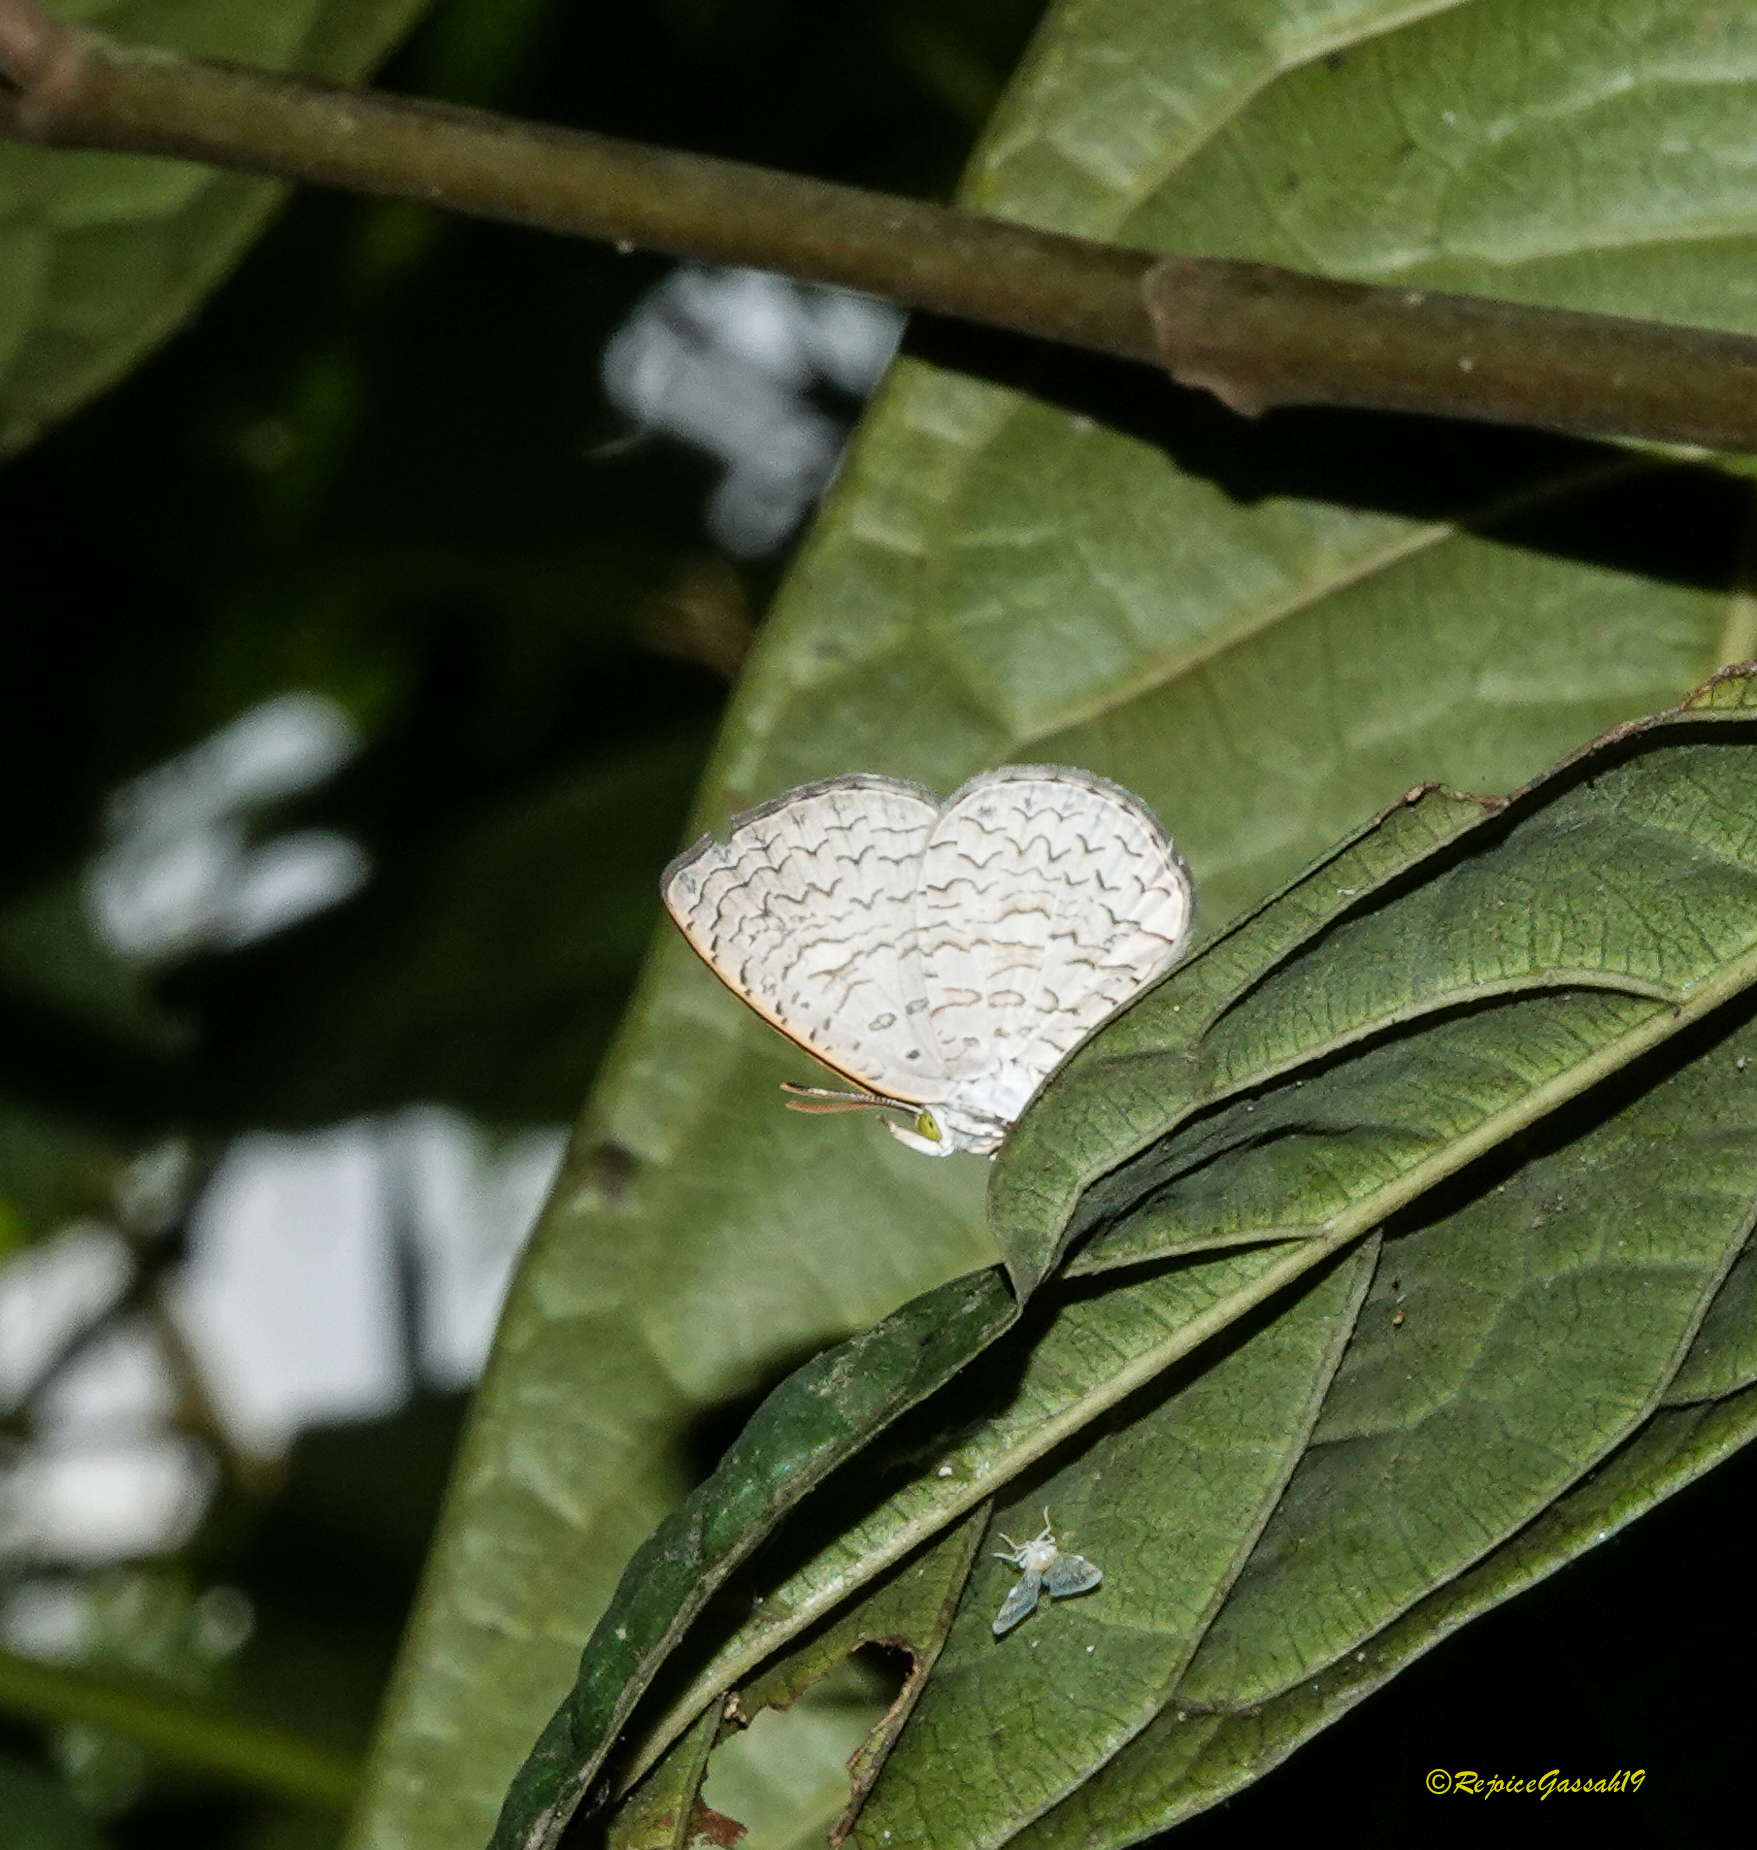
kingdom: Animalia
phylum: Arthropoda
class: Insecta
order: Lepidoptera
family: Lycaenidae
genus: Spalgis
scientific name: Spalgis epius
